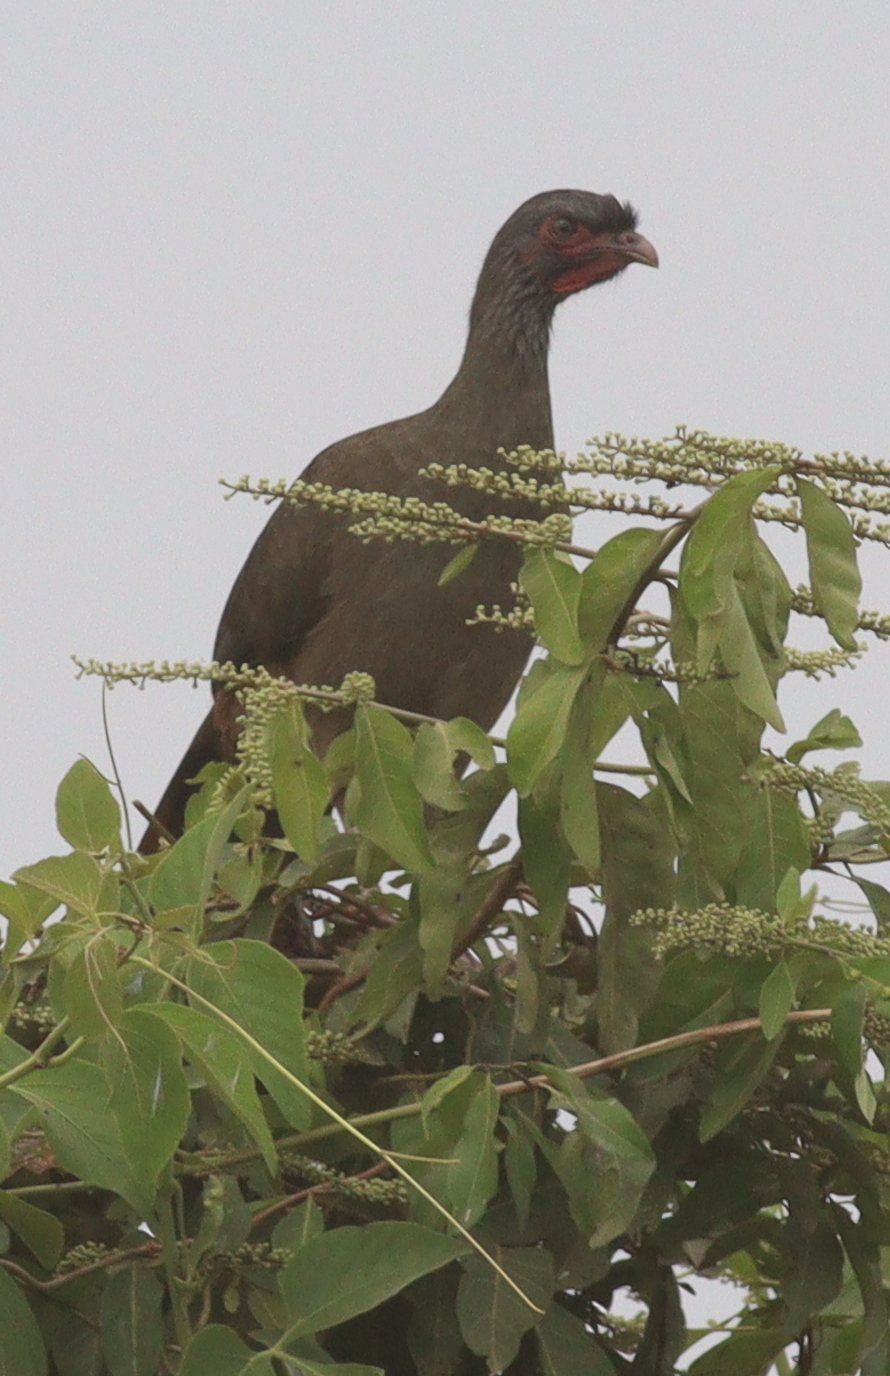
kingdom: Animalia
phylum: Chordata
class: Aves
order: Galliformes
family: Cracidae
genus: Ortalis
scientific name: Ortalis canicollis
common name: Chaco chachalaca
